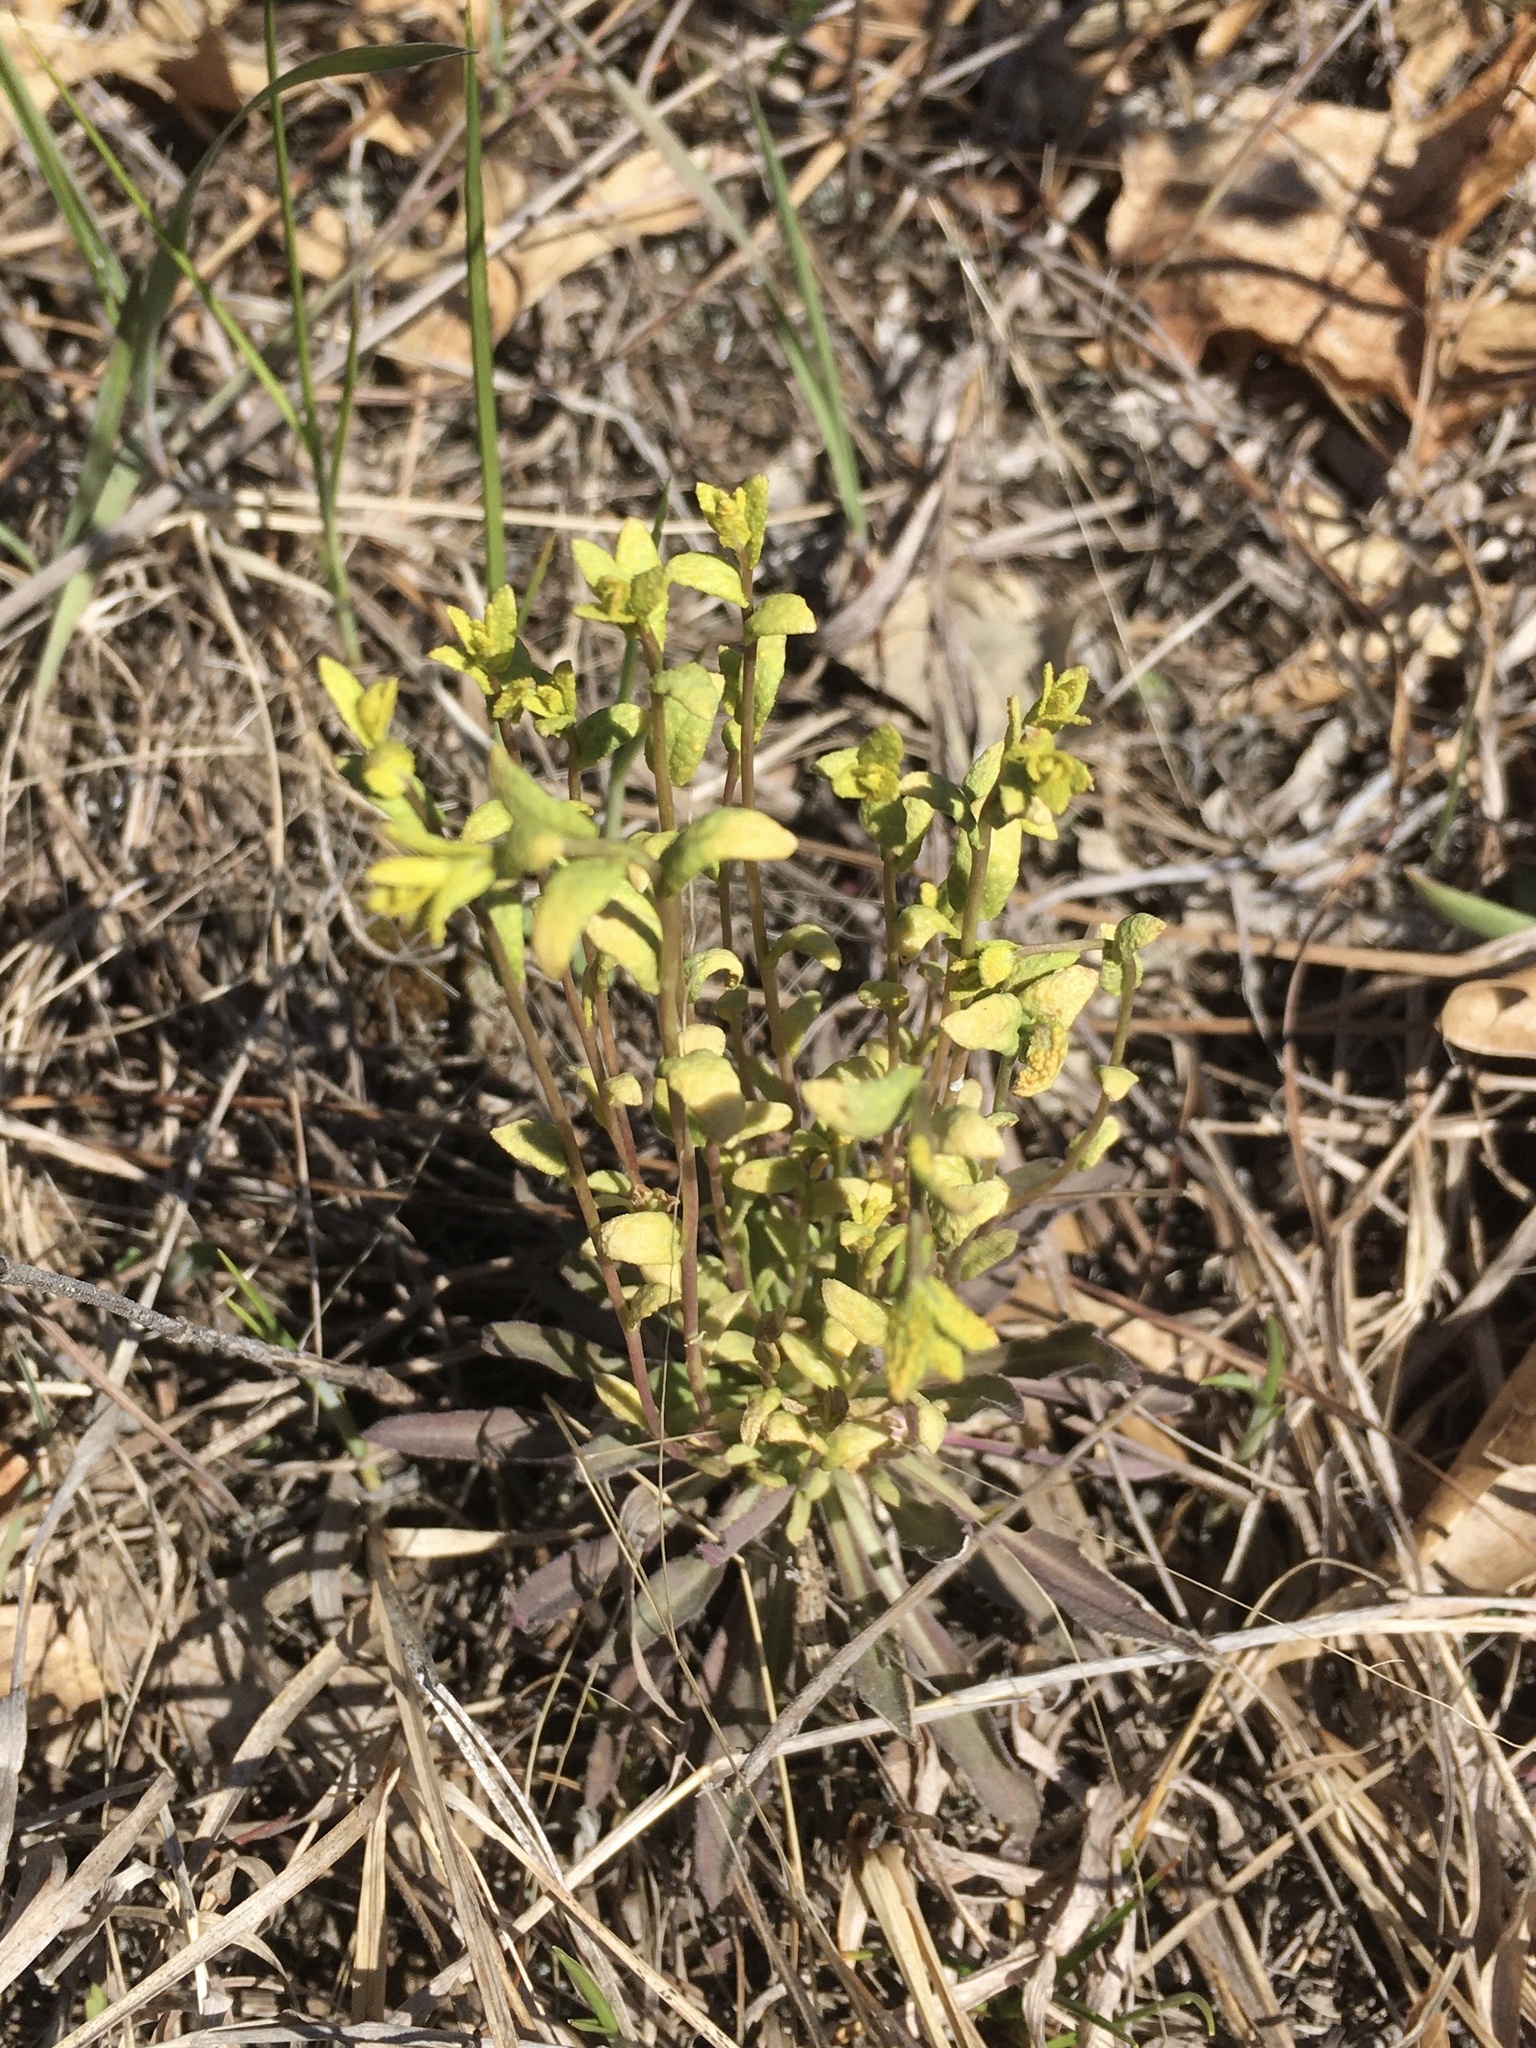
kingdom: Fungi
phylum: Basidiomycota
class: Pucciniomycetes
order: Pucciniales
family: Pucciniaceae
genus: Puccinia
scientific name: Puccinia monoica
